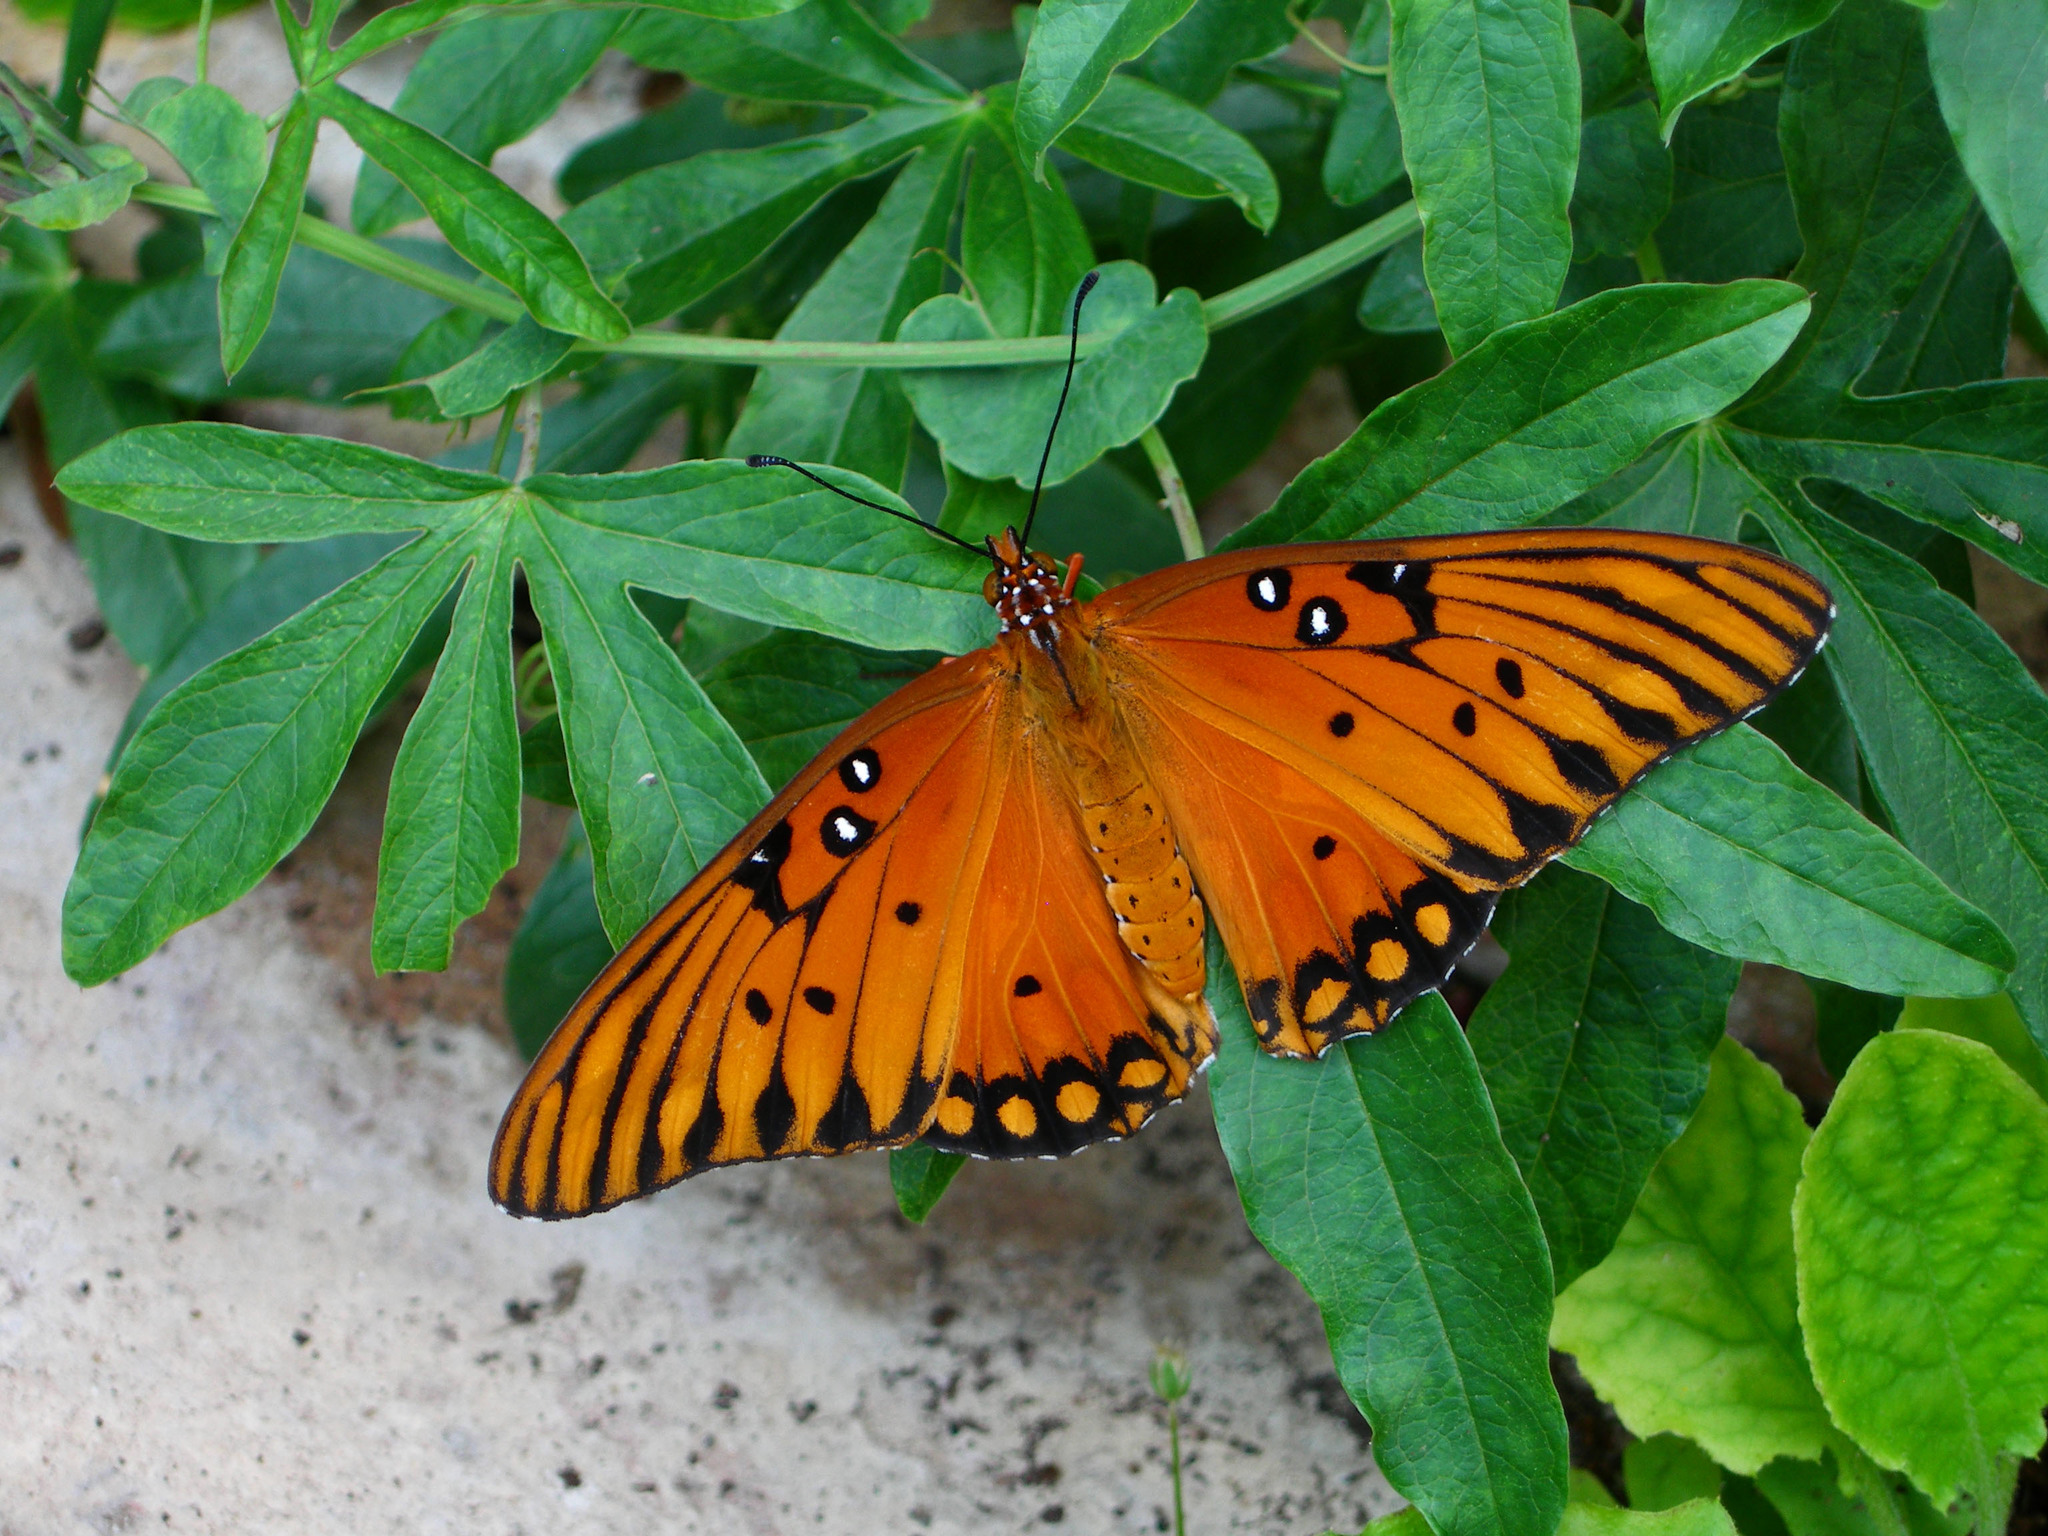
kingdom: Animalia
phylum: Arthropoda
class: Insecta
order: Lepidoptera
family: Nymphalidae
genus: Dione
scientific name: Dione vanillae
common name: Gulf fritillary
